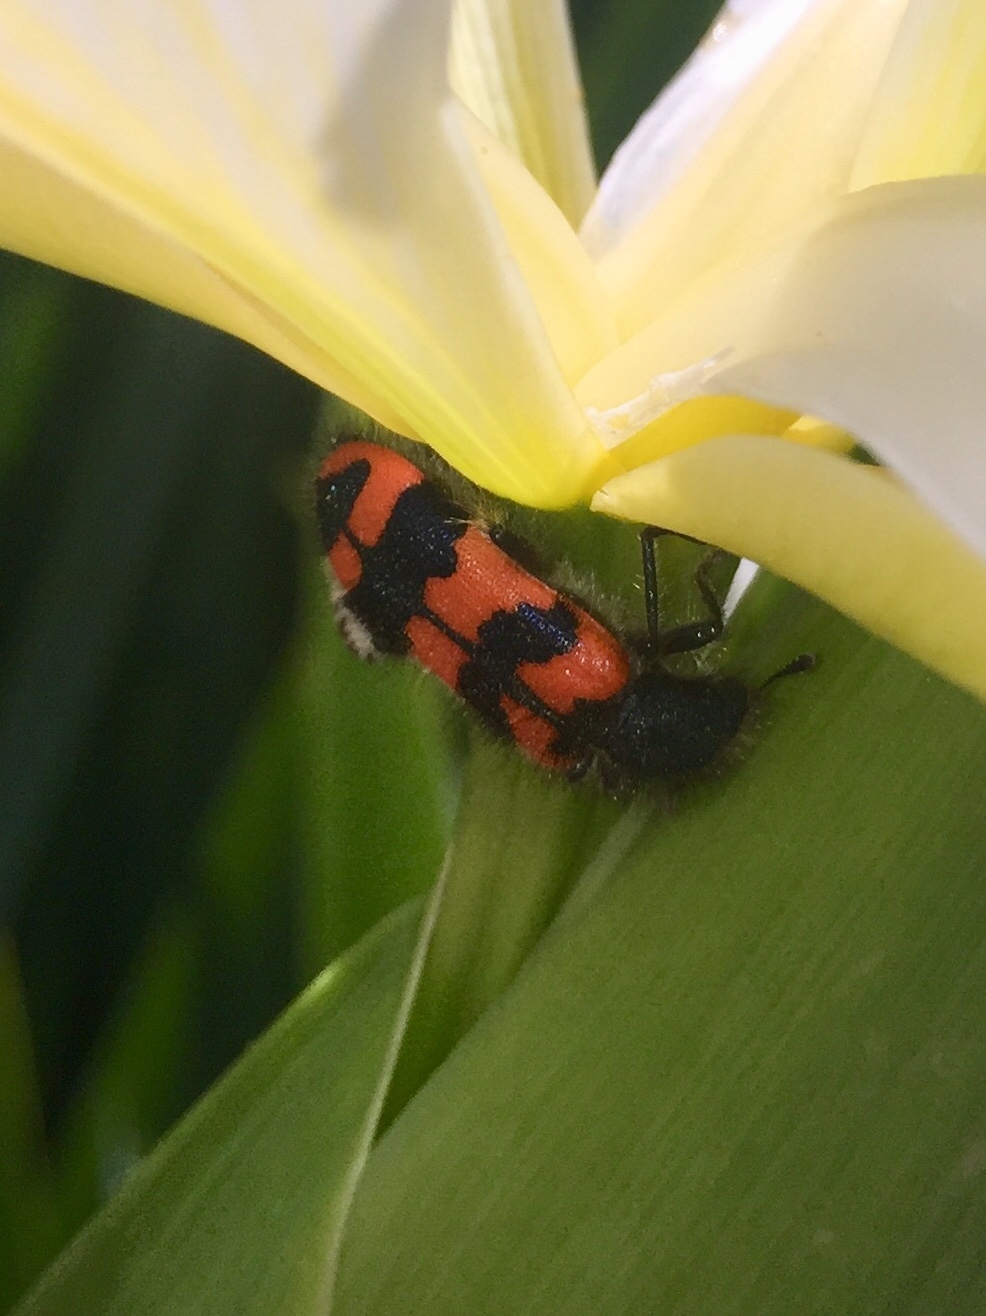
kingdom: Animalia
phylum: Arthropoda
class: Insecta
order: Coleoptera
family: Cleridae
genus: Trichodes
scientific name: Trichodes alvearius
